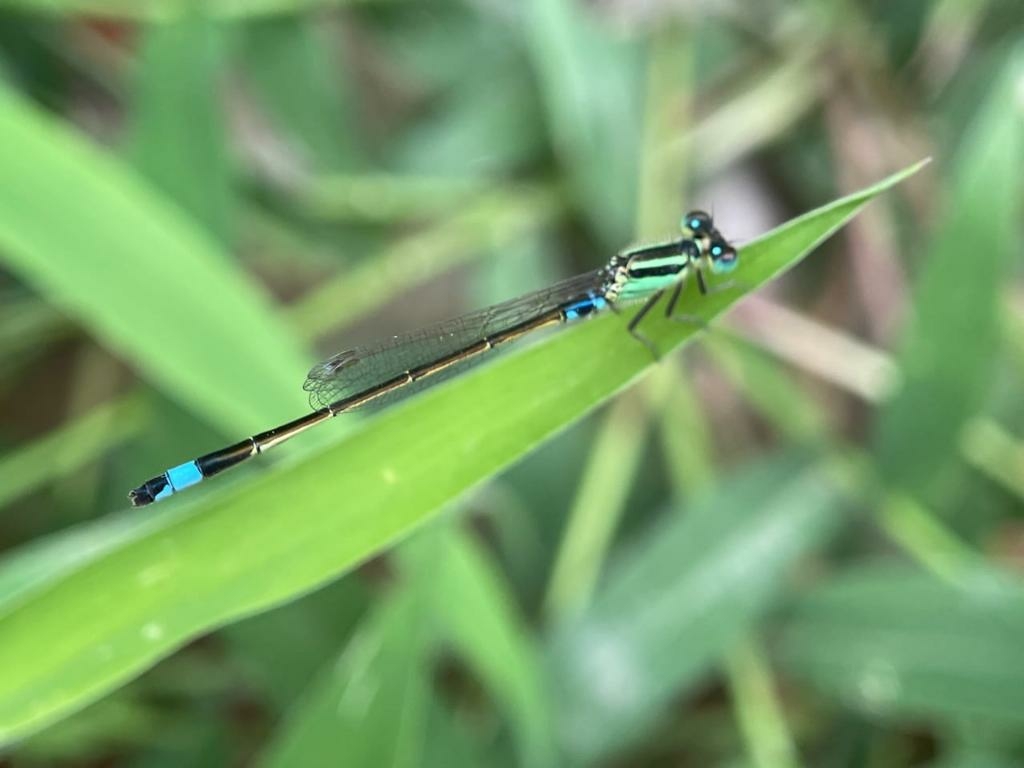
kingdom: Animalia
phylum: Arthropoda
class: Insecta
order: Odonata
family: Coenagrionidae
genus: Ischnura
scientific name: Ischnura senegalensis
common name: Tropical bluetail
